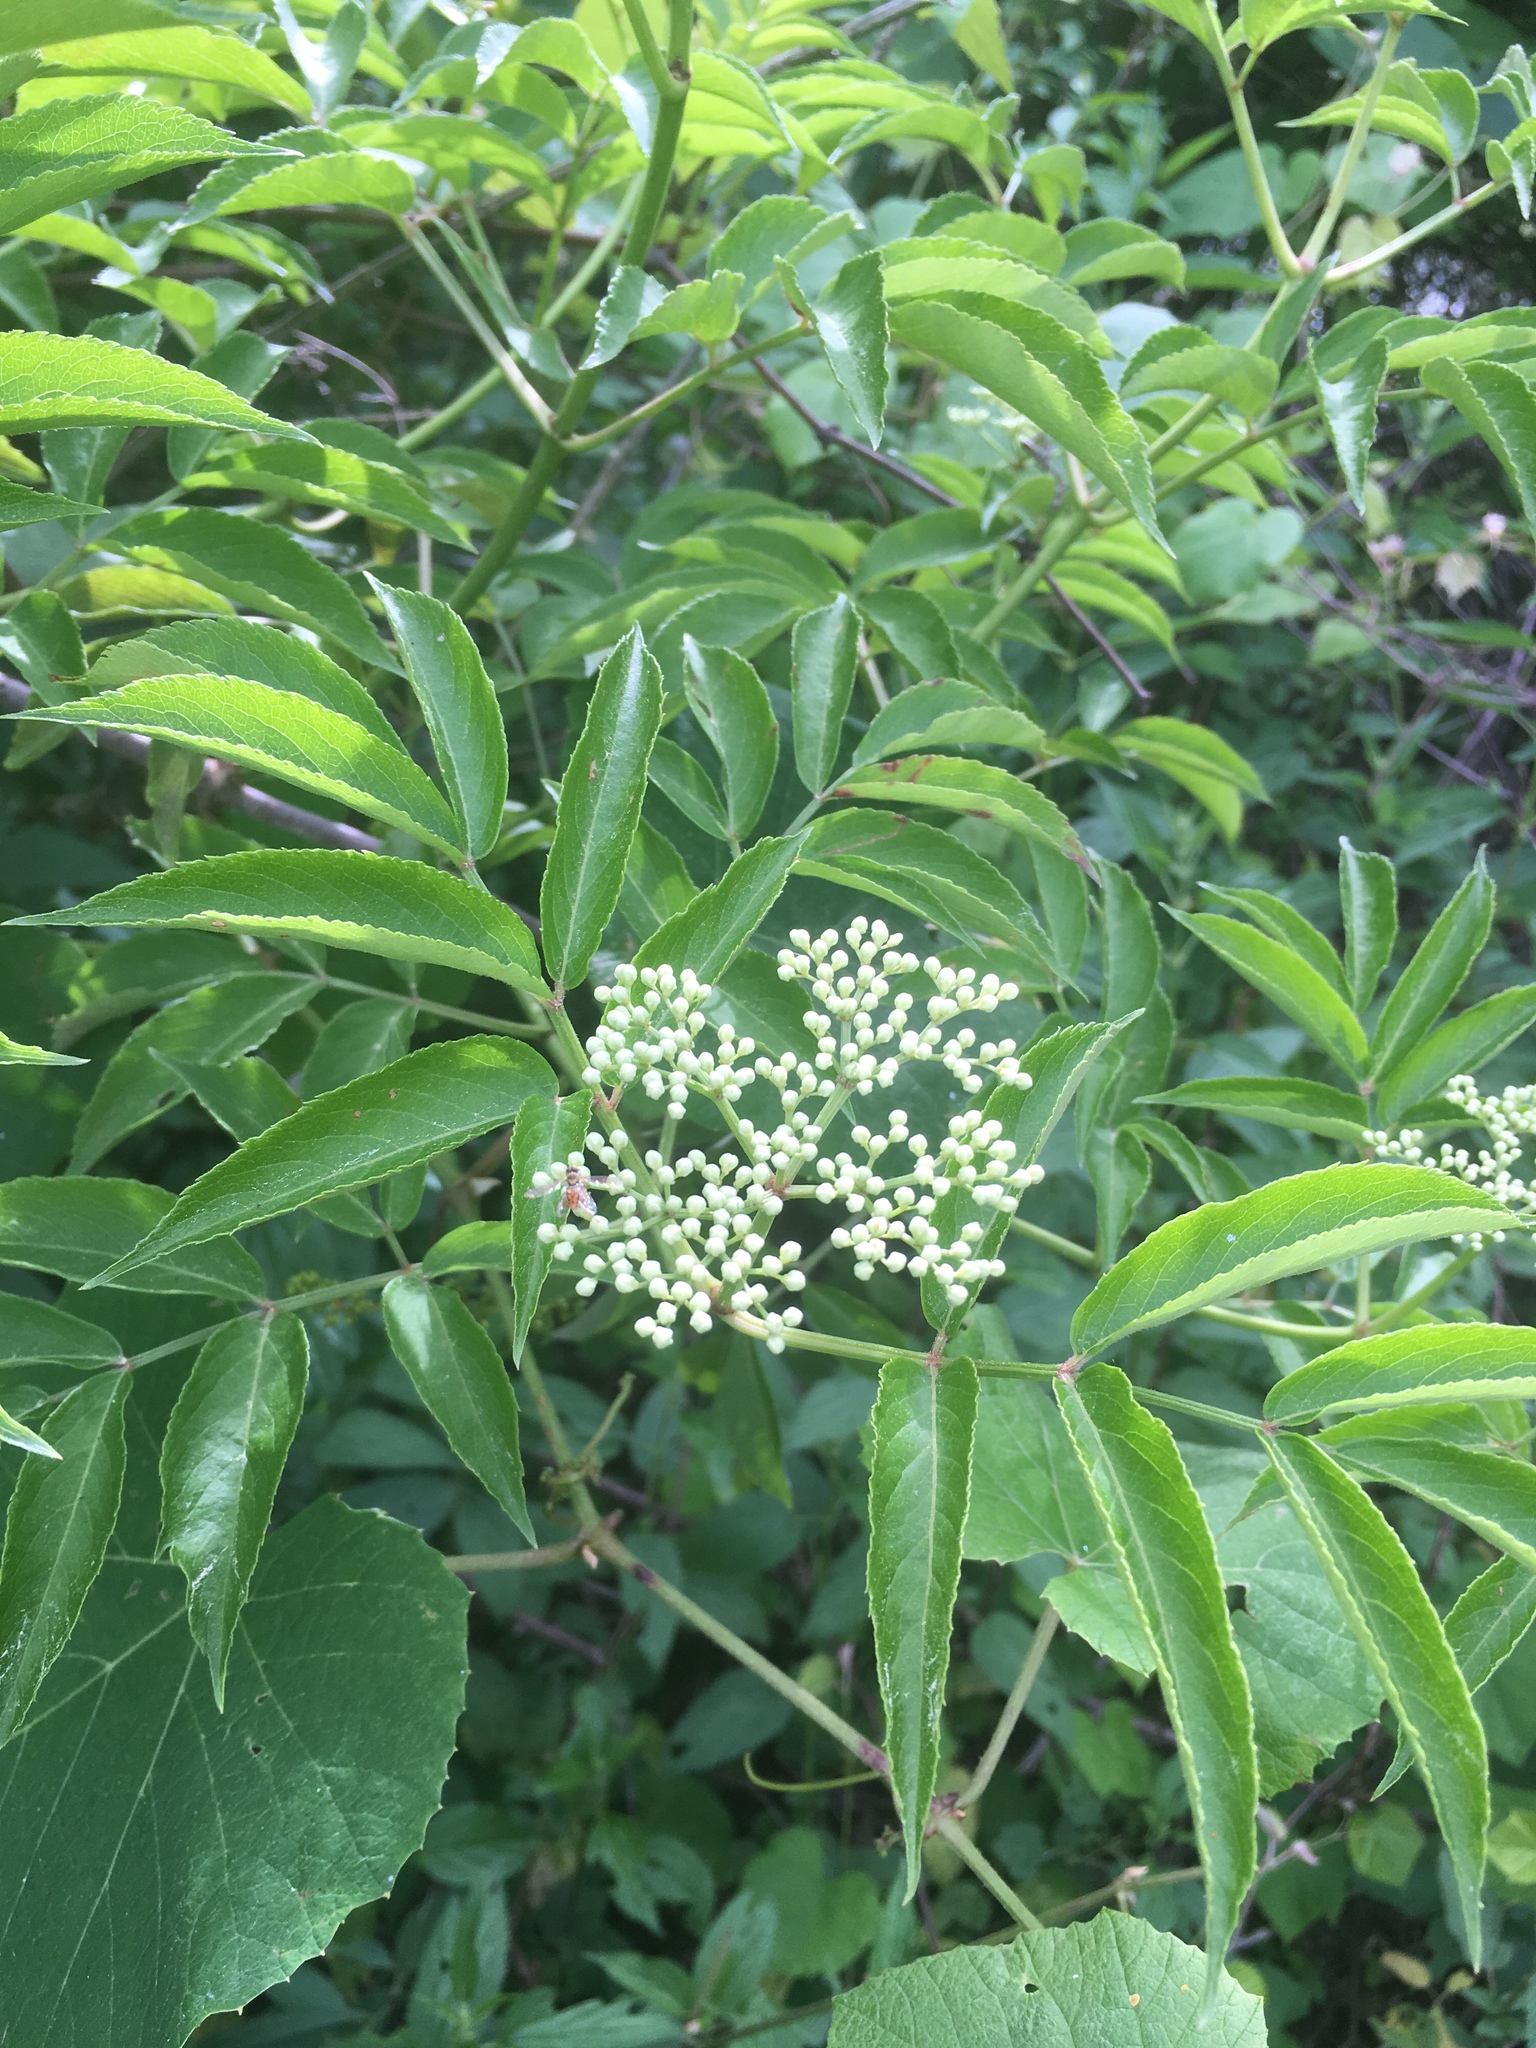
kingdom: Plantae
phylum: Tracheophyta
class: Magnoliopsida
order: Dipsacales
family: Viburnaceae
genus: Sambucus
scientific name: Sambucus canadensis
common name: American elder
